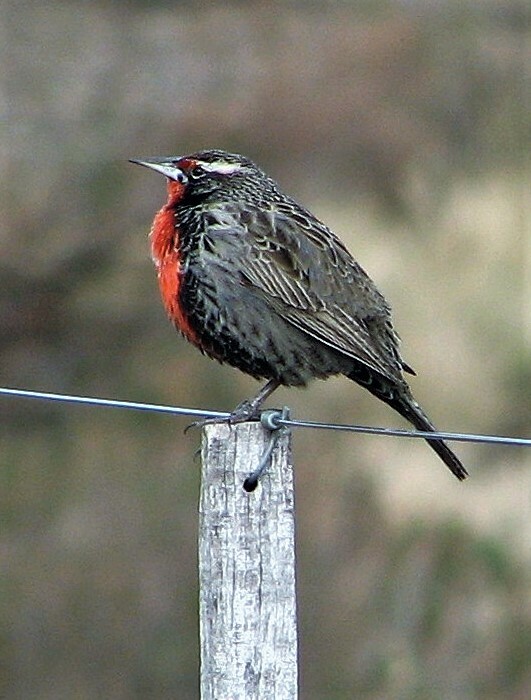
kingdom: Animalia
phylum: Chordata
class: Aves
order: Passeriformes
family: Icteridae
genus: Sturnella
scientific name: Sturnella loyca
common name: Long-tailed meadowlark
